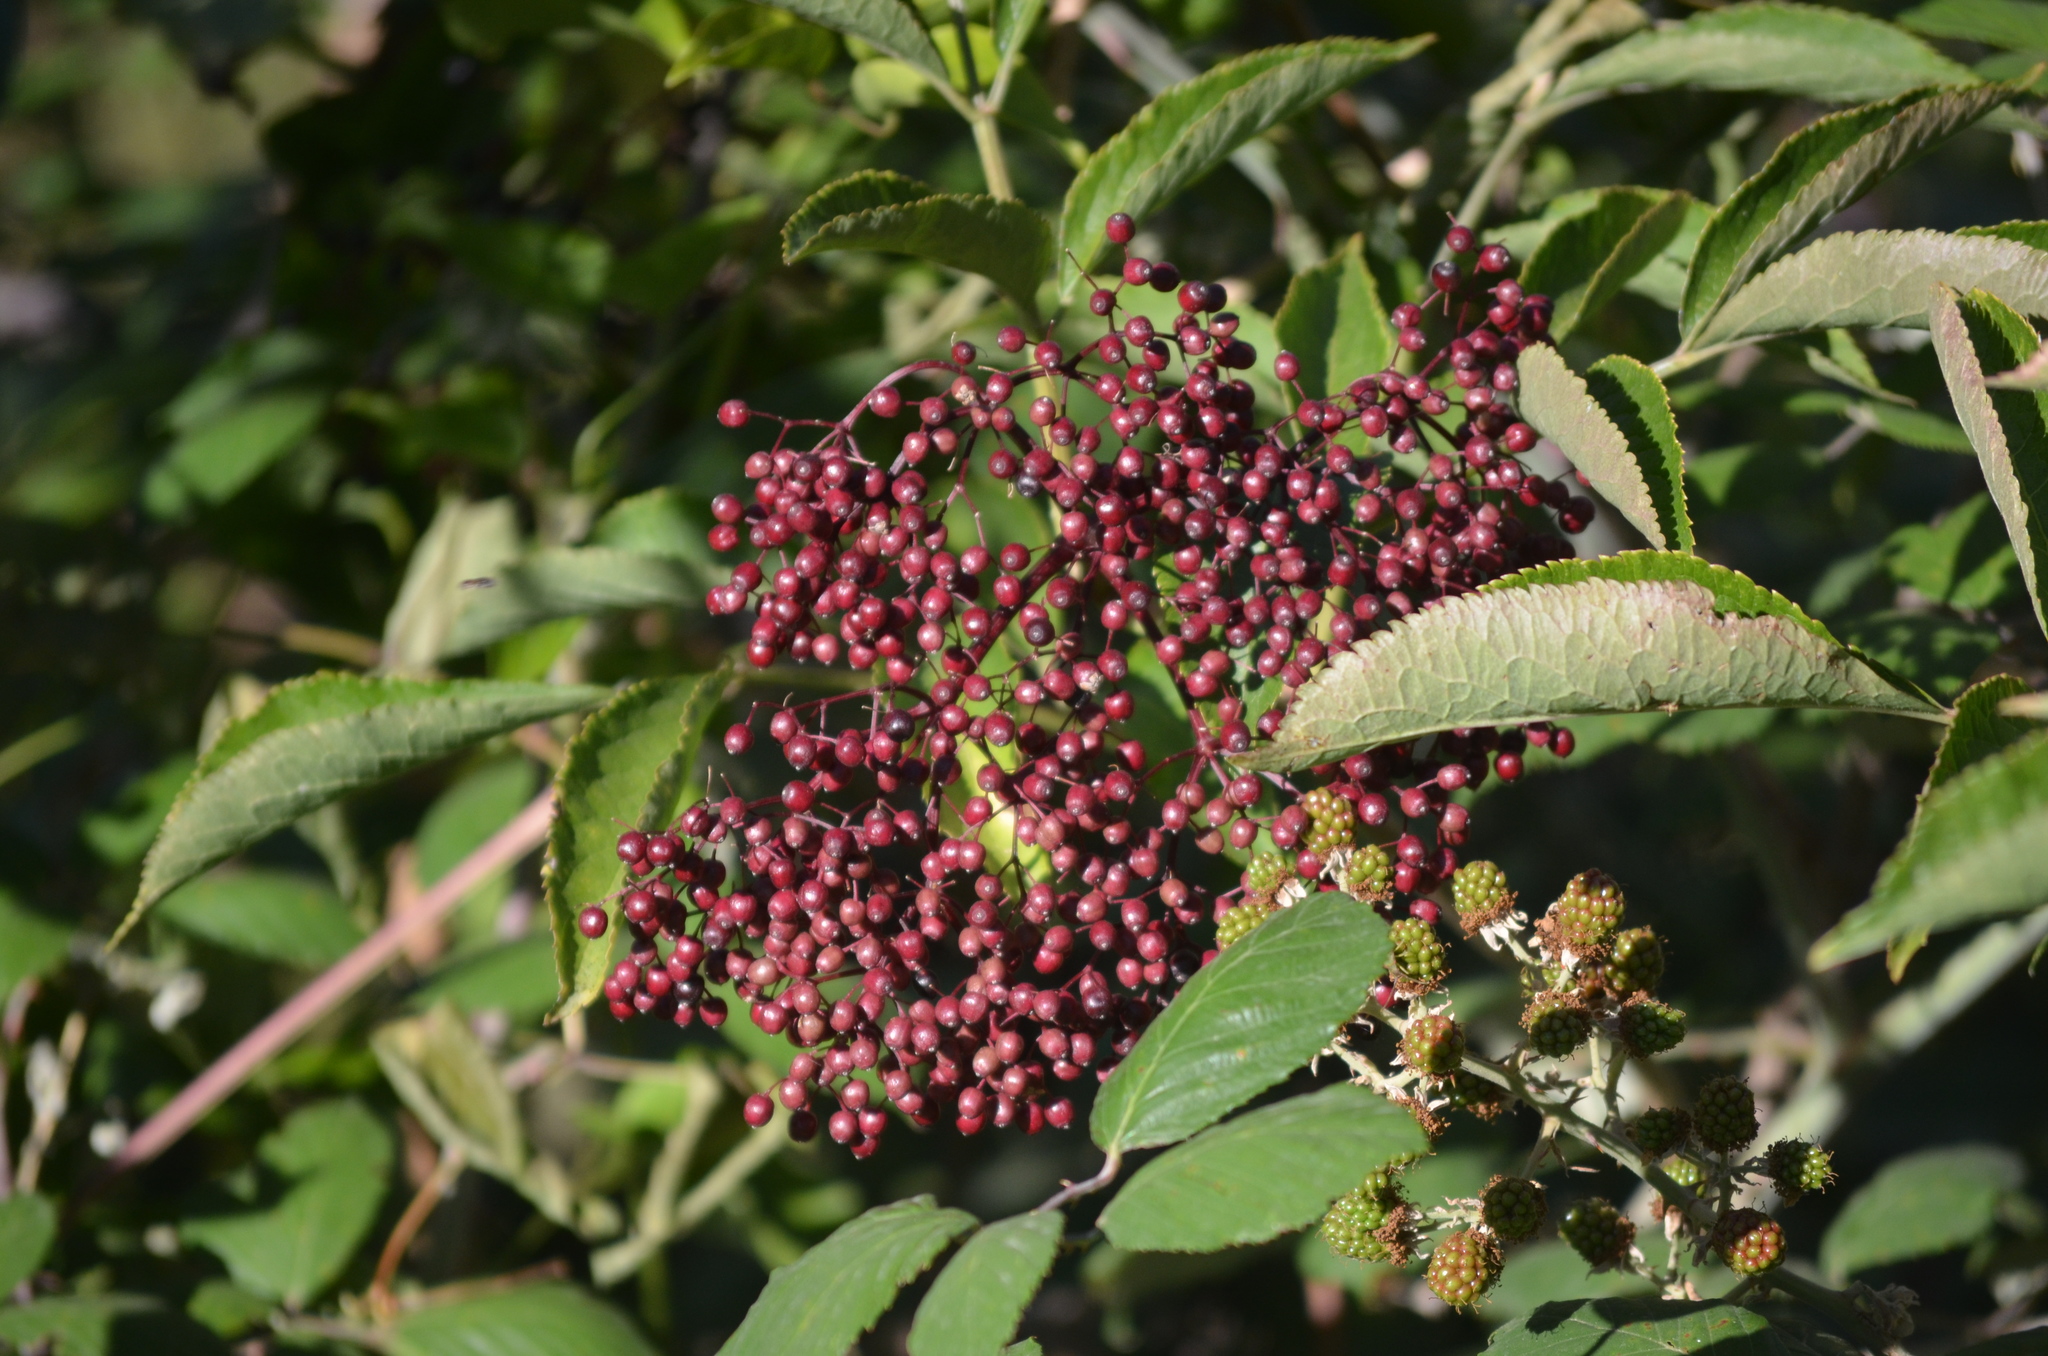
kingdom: Plantae
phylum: Tracheophyta
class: Magnoliopsida
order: Dipsacales
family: Viburnaceae
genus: Sambucus
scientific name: Sambucus nigra
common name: Elder
